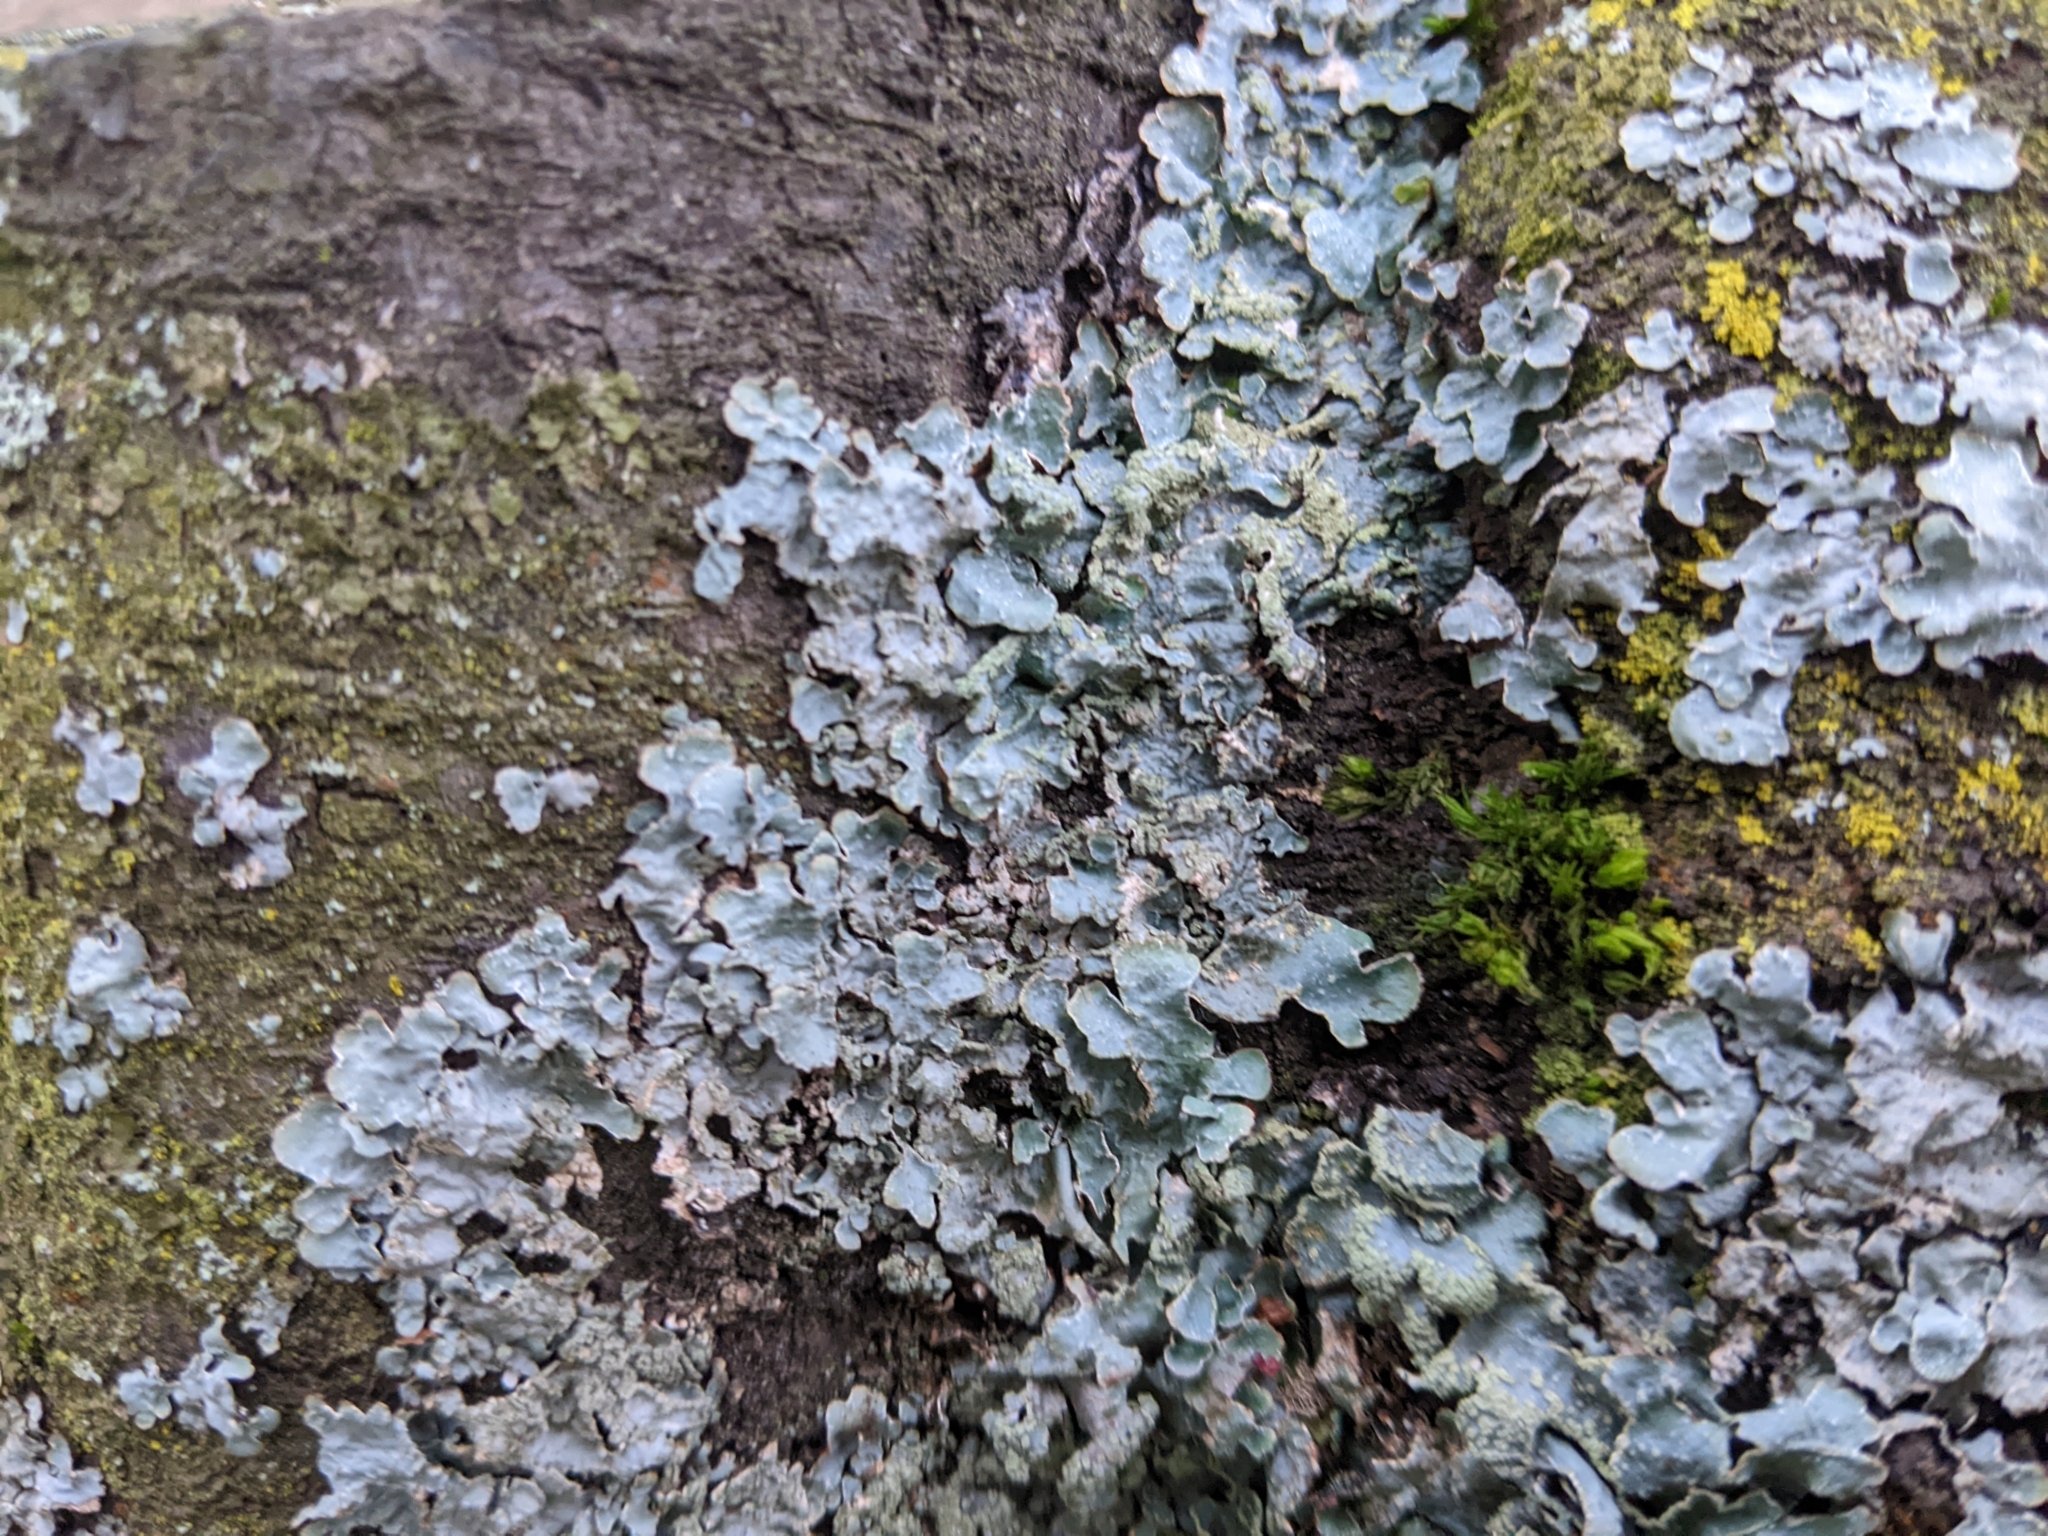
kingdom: Fungi
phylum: Ascomycota
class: Lecanoromycetes
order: Lecanorales
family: Parmeliaceae
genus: Parmelia
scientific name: Parmelia sulcata
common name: Netted shield lichen
